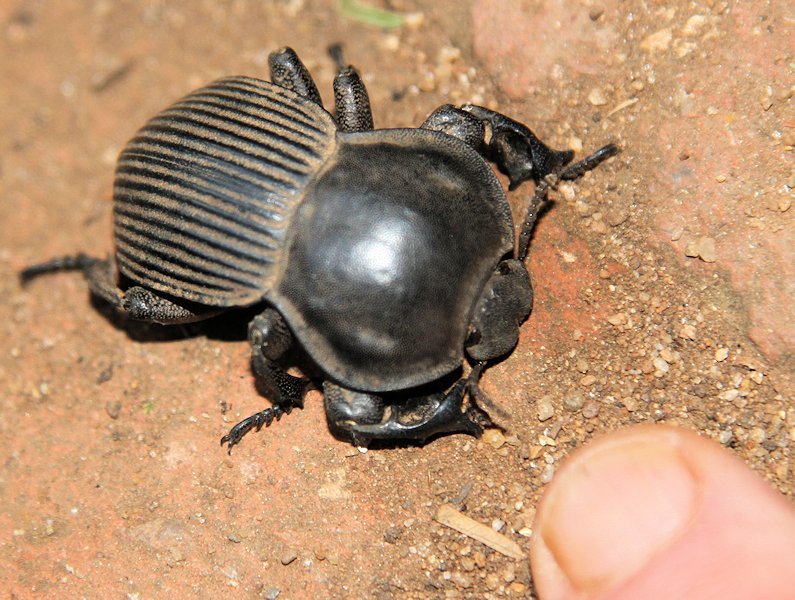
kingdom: Animalia
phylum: Arthropoda
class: Insecta
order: Coleoptera
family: Tenebrionidae
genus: Anomalipus
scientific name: Anomalipus
